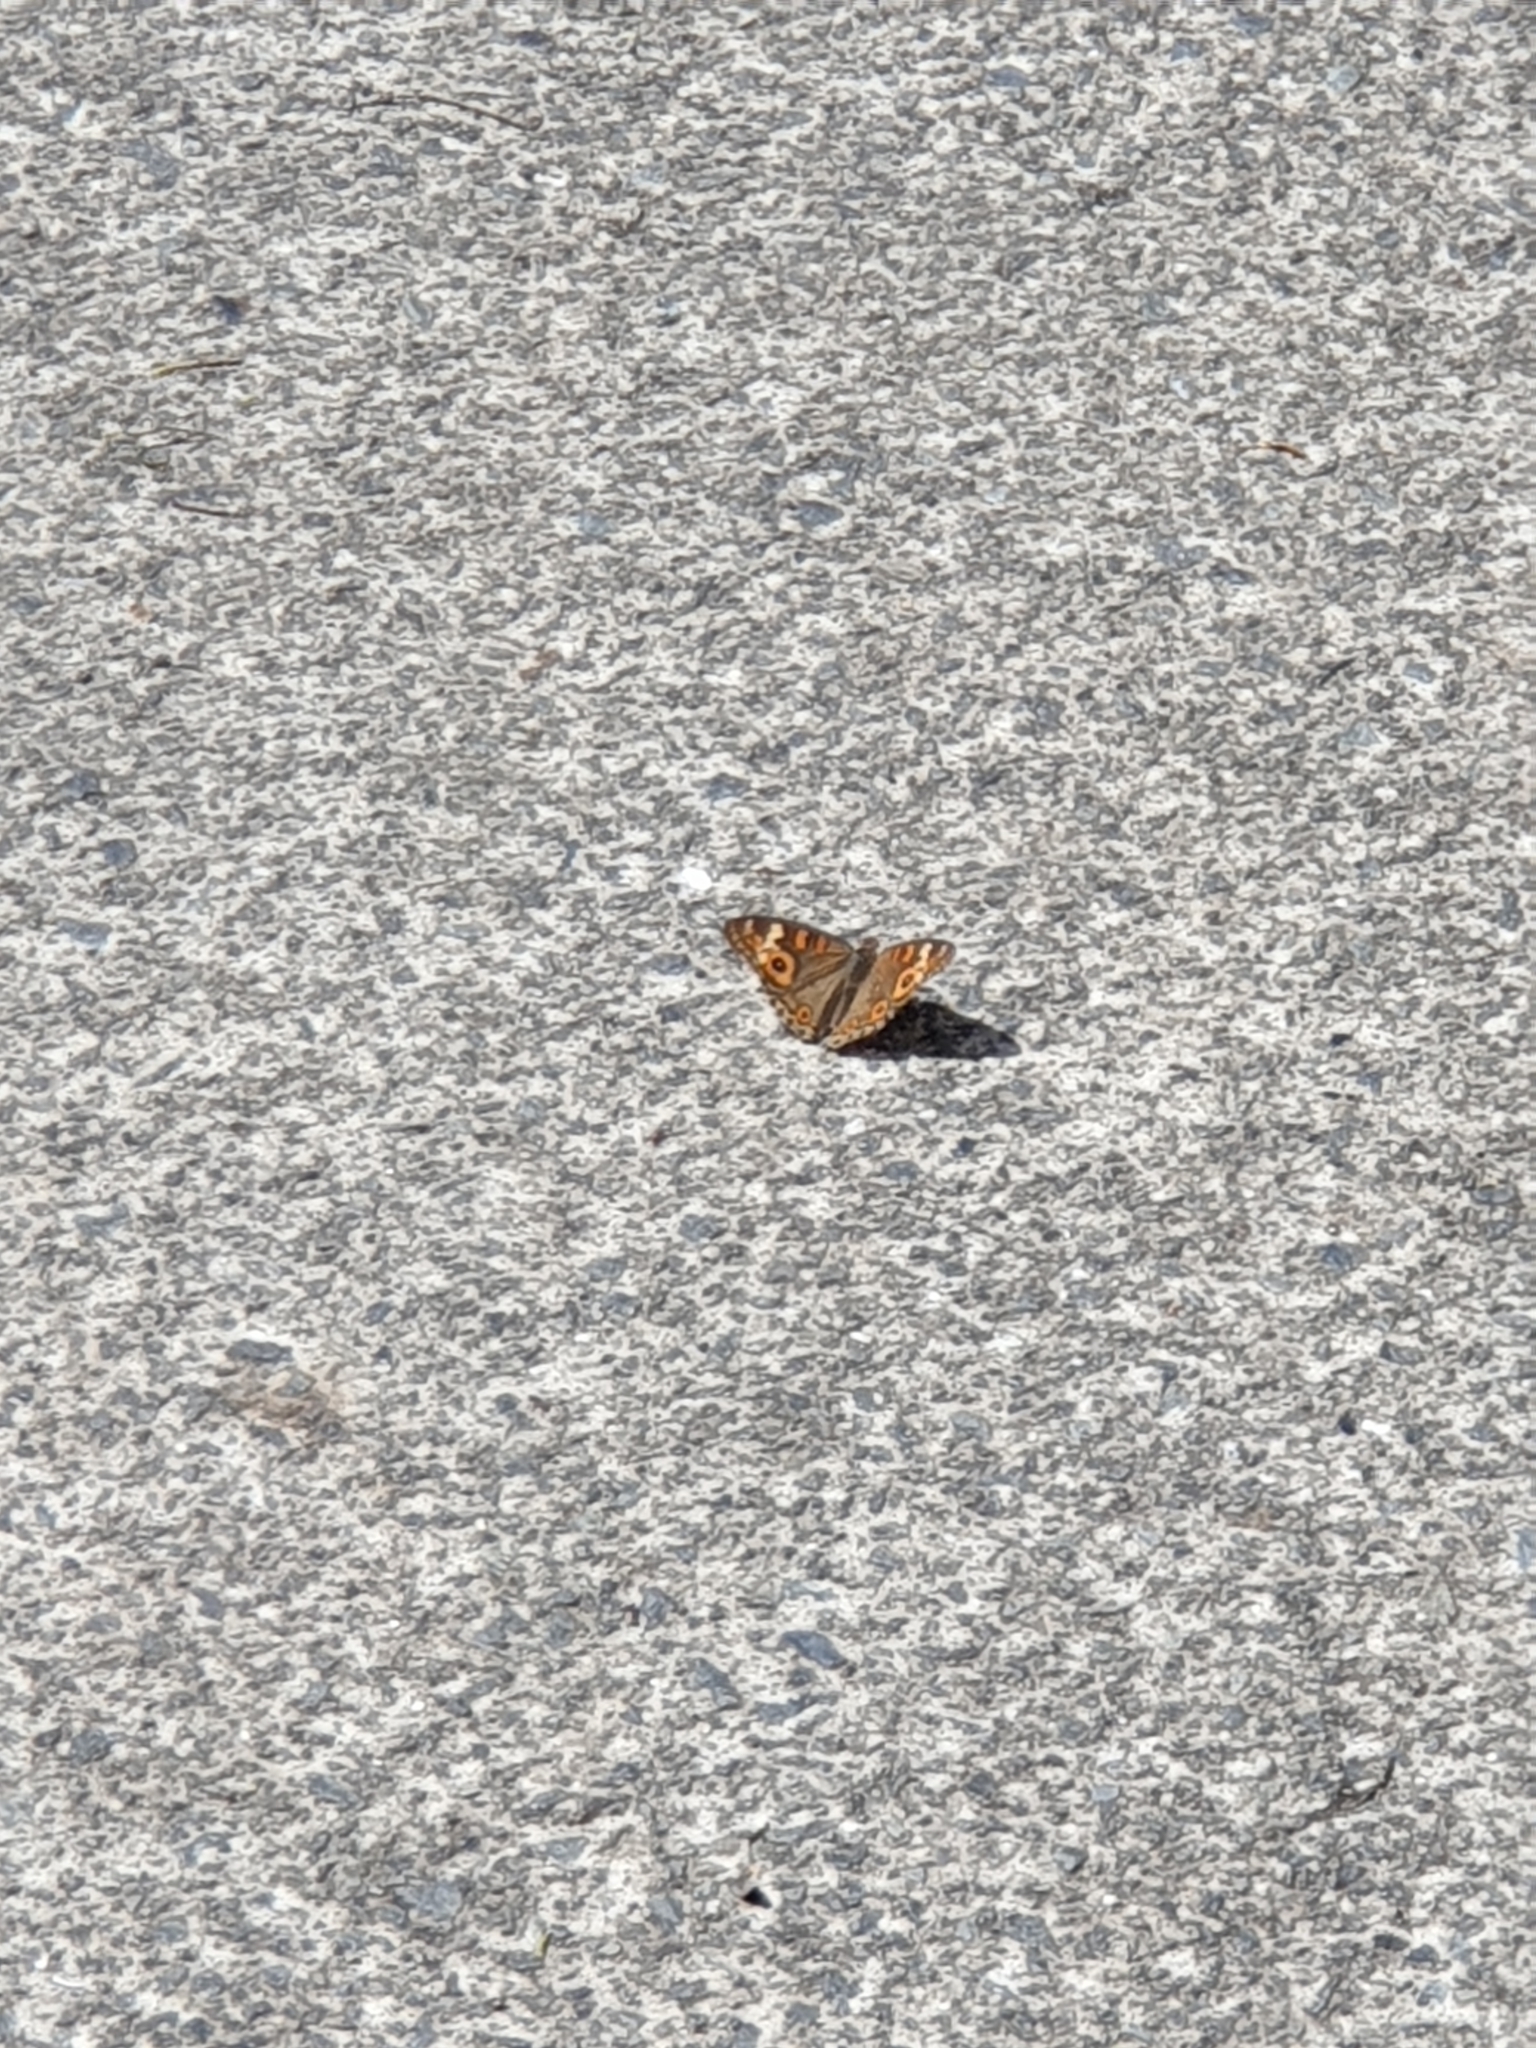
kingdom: Animalia
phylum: Arthropoda
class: Insecta
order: Lepidoptera
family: Nymphalidae
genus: Junonia
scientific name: Junonia villida
